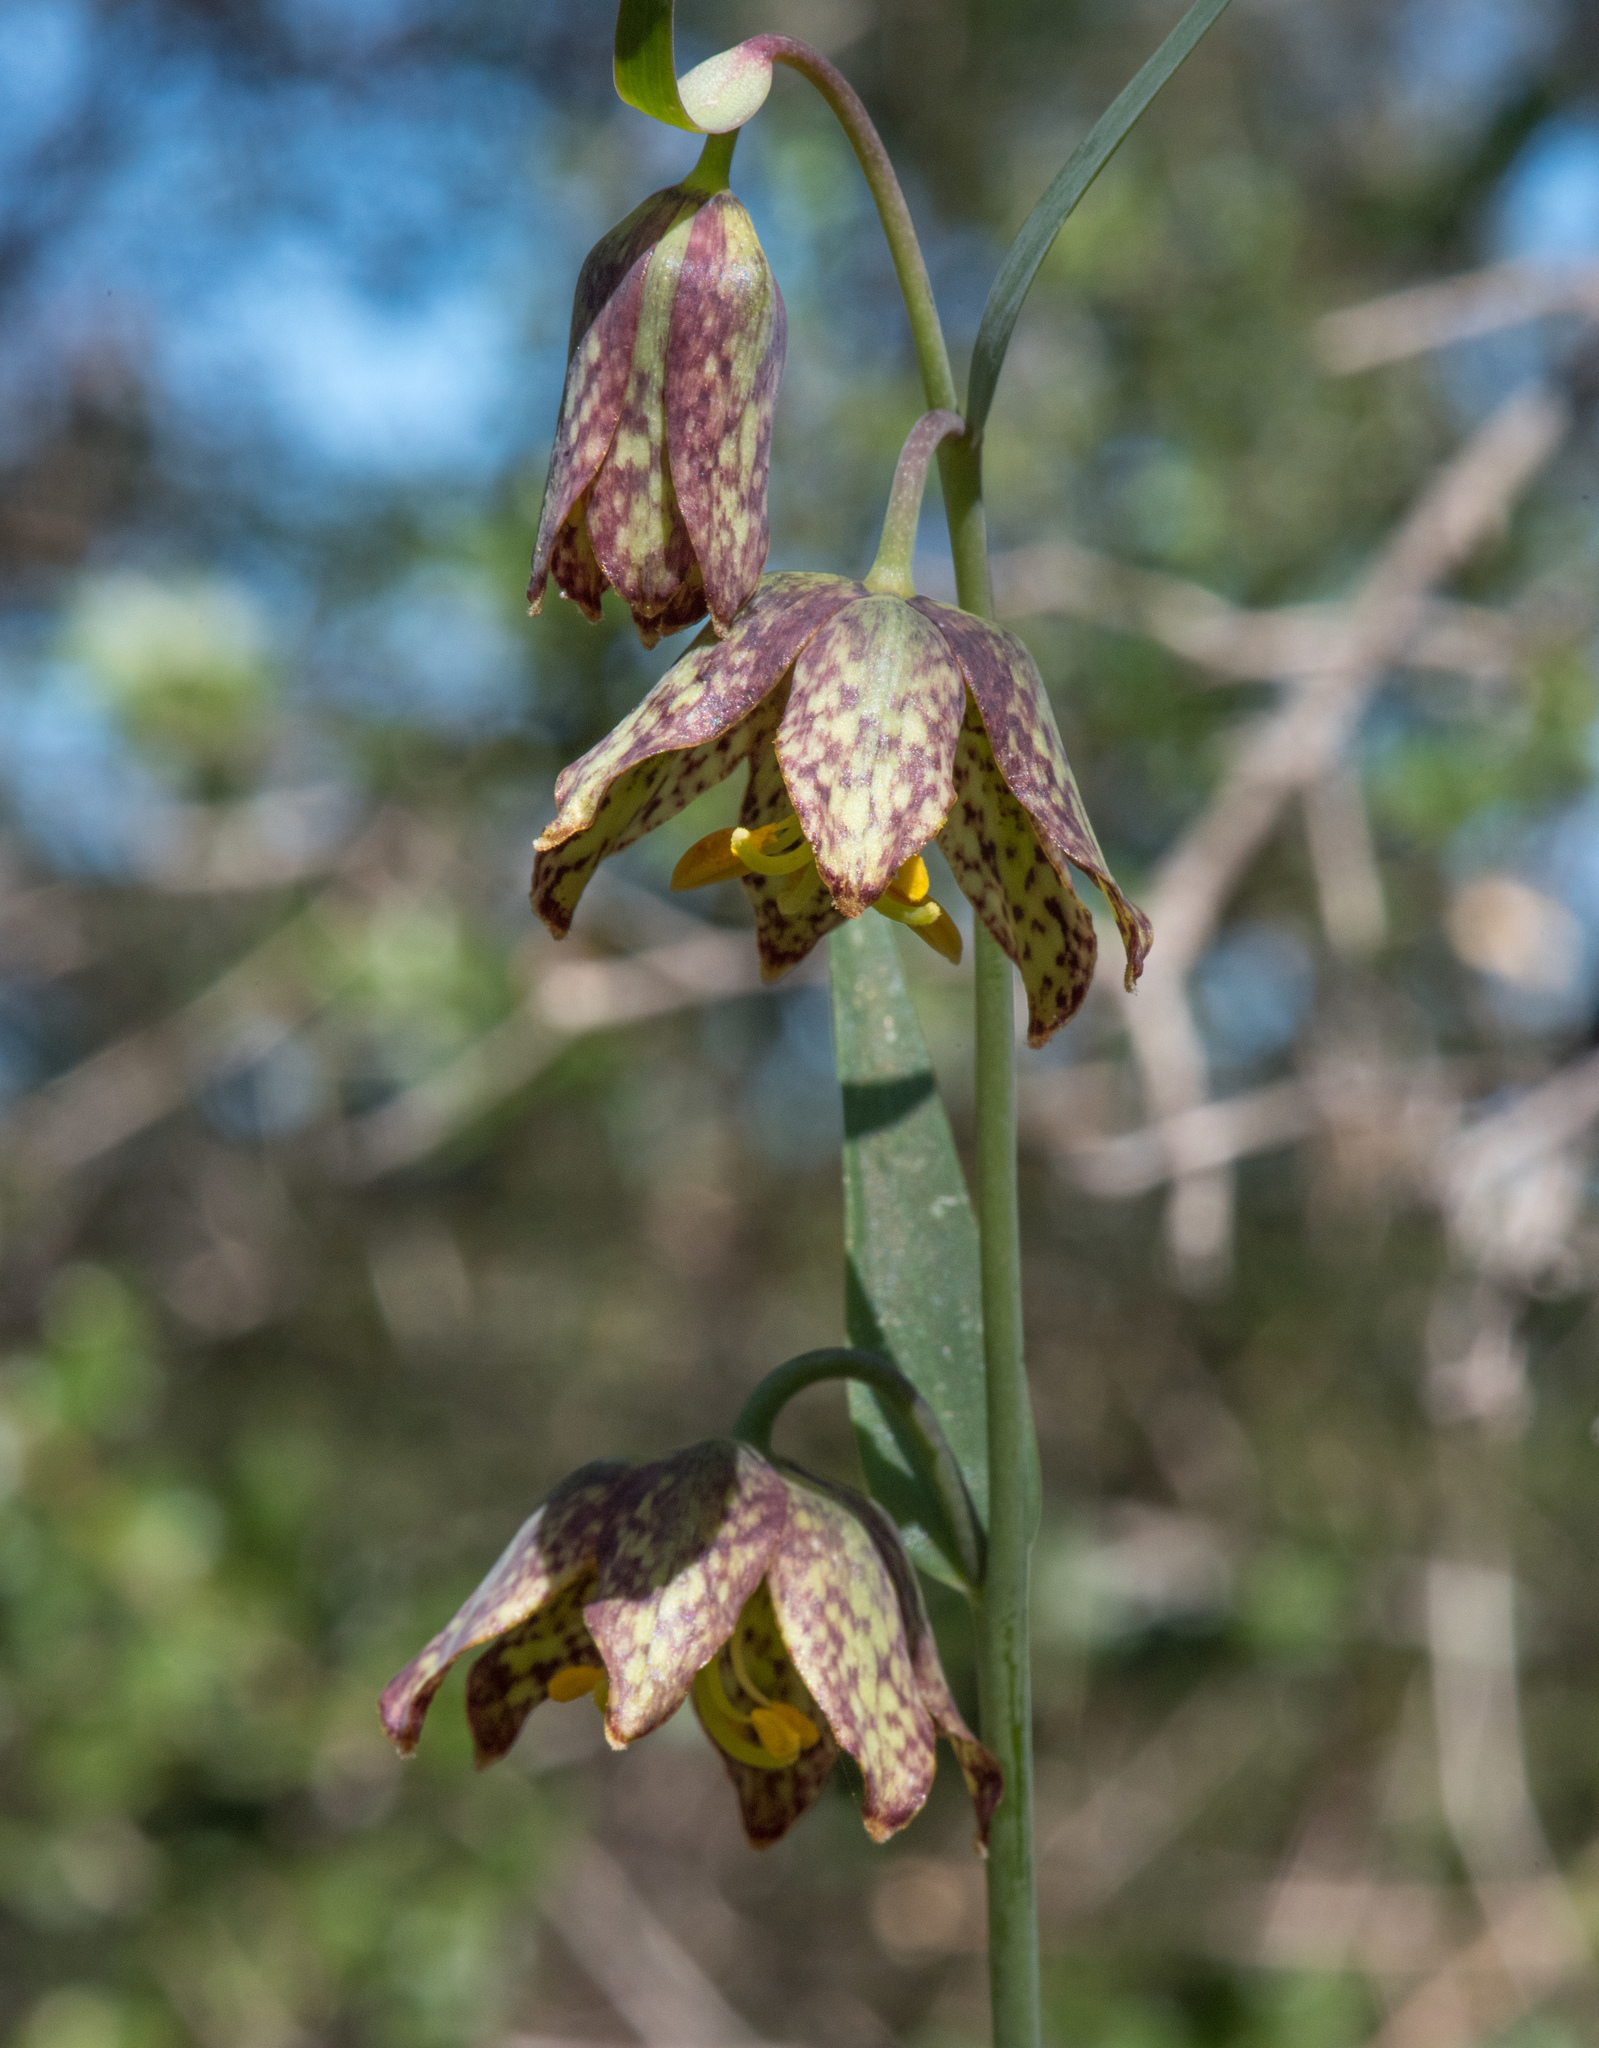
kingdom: Plantae
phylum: Tracheophyta
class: Liliopsida
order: Liliales
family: Liliaceae
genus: Fritillaria
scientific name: Fritillaria affinis
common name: Ojai fritillary
